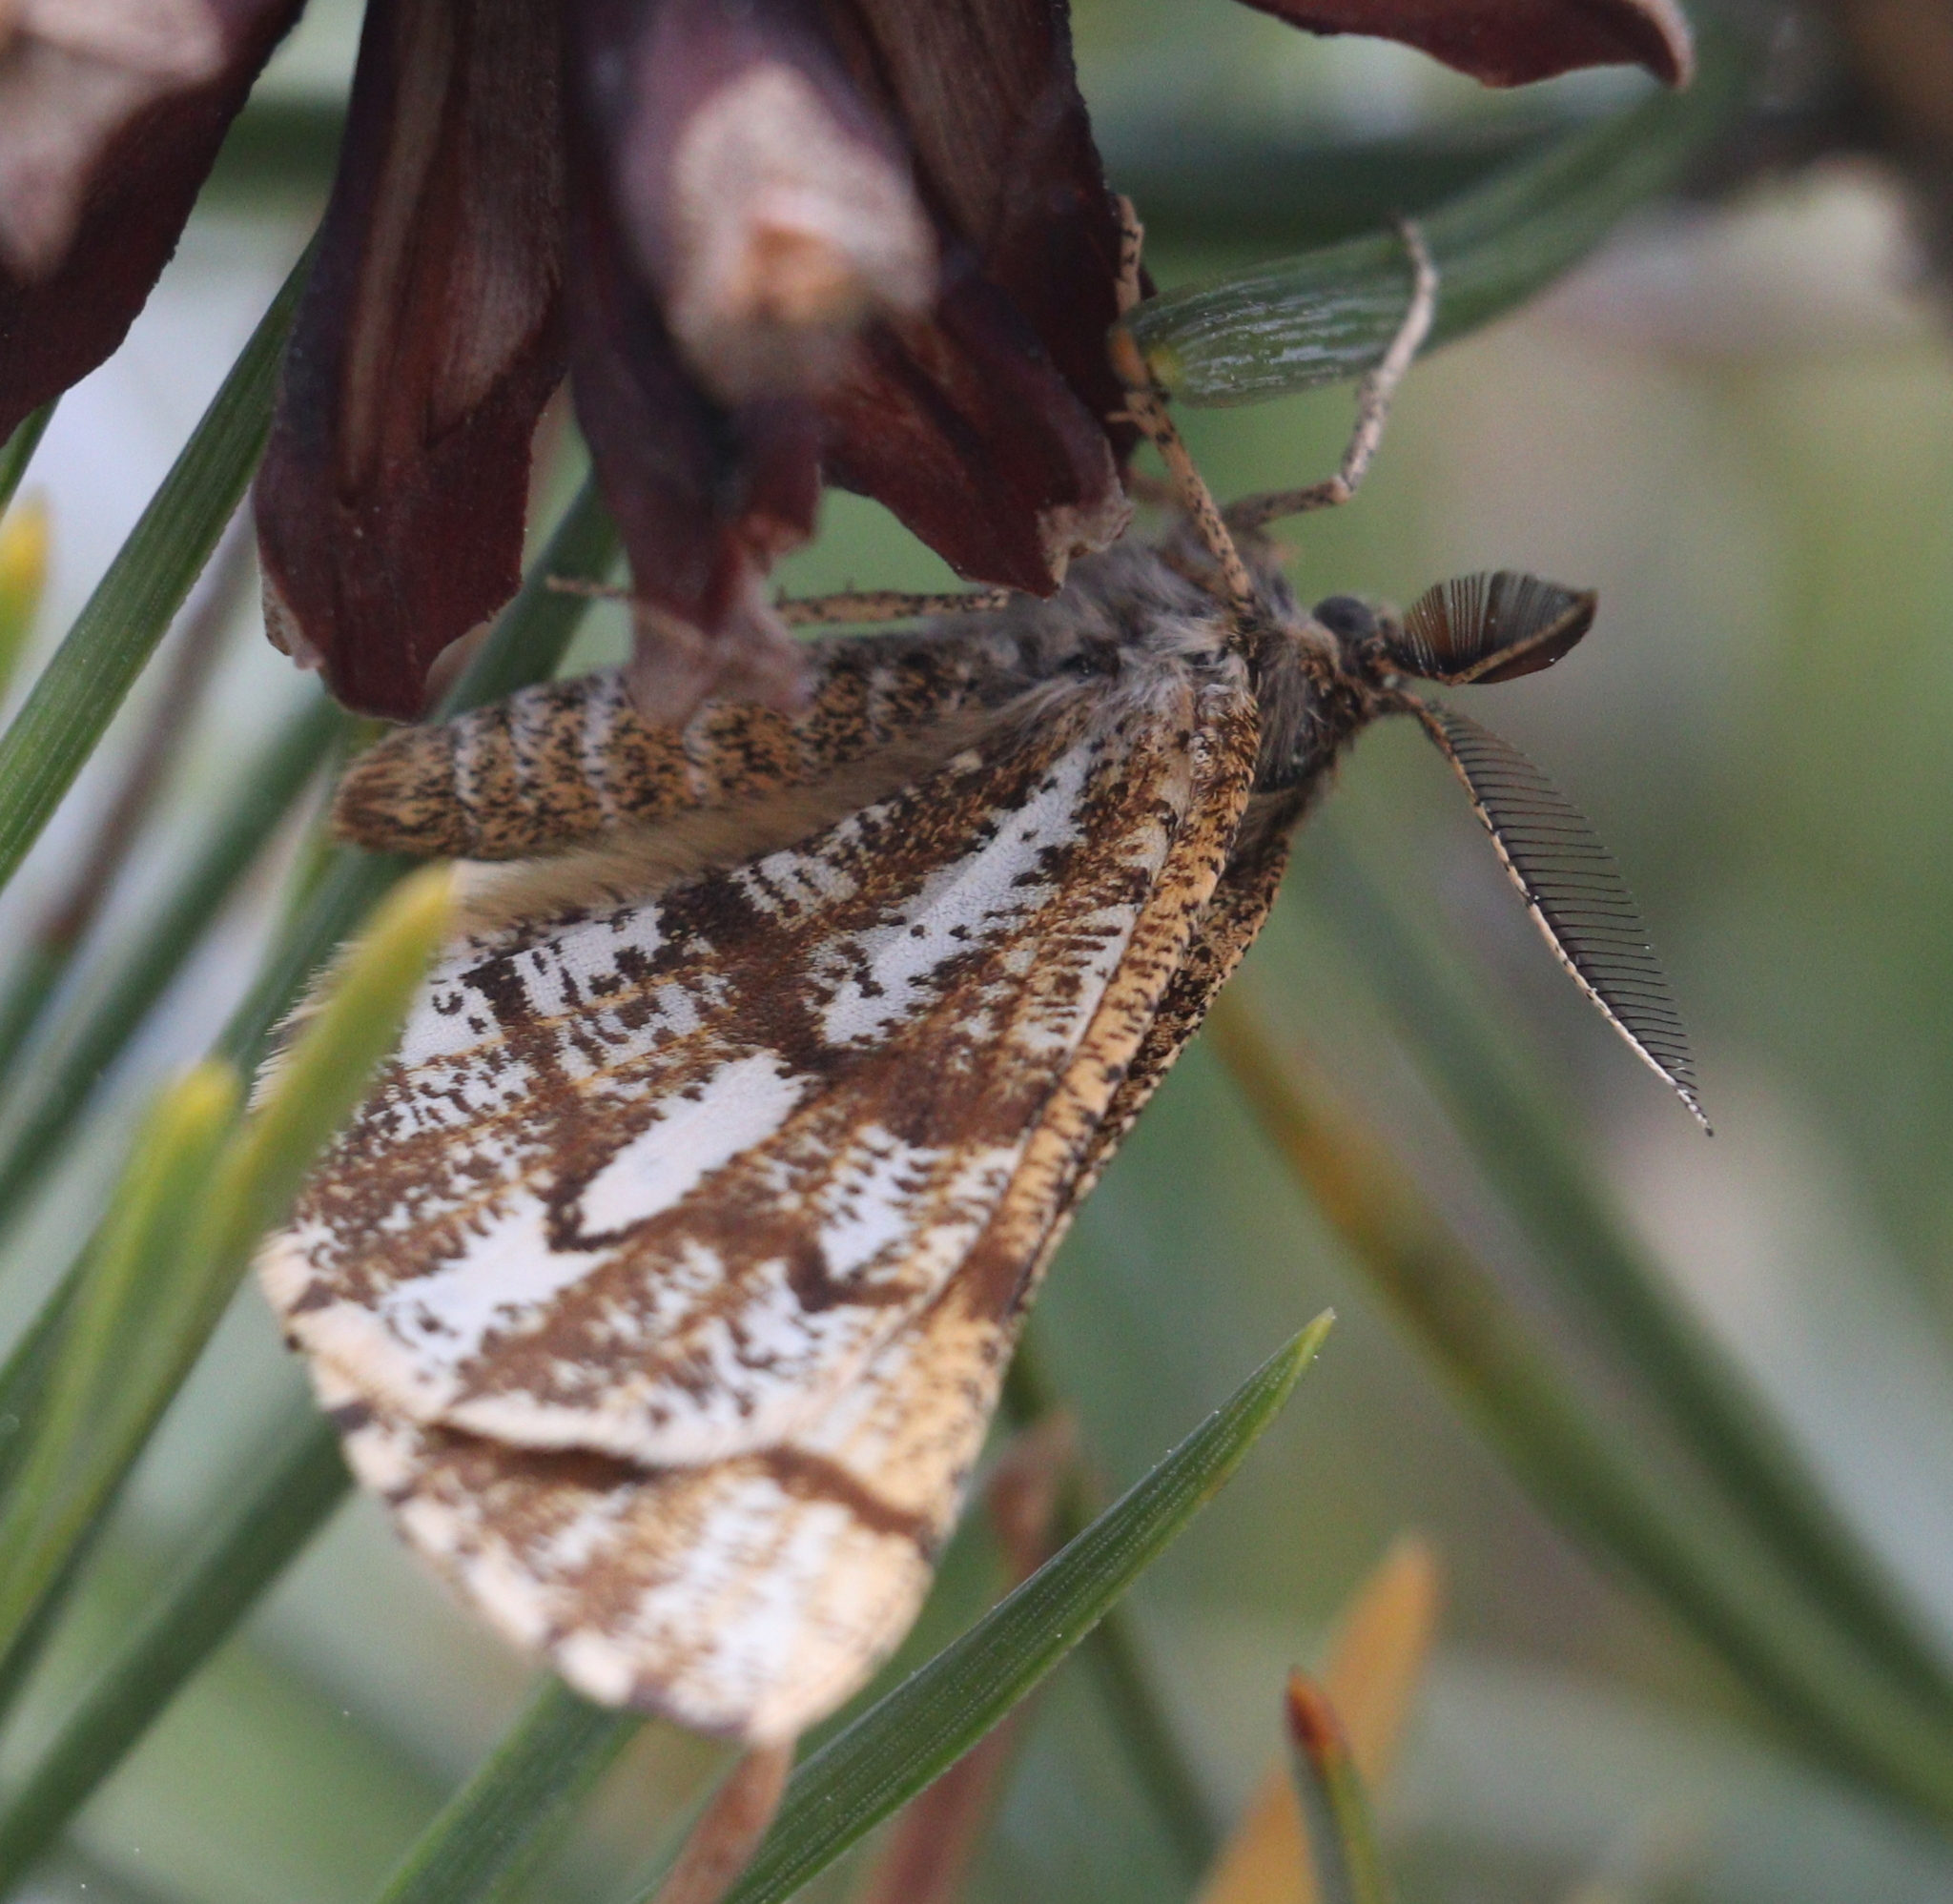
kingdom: Animalia
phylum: Arthropoda
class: Insecta
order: Lepidoptera
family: Geometridae
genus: Bupalus
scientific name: Bupalus piniaria
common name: Bordered white
